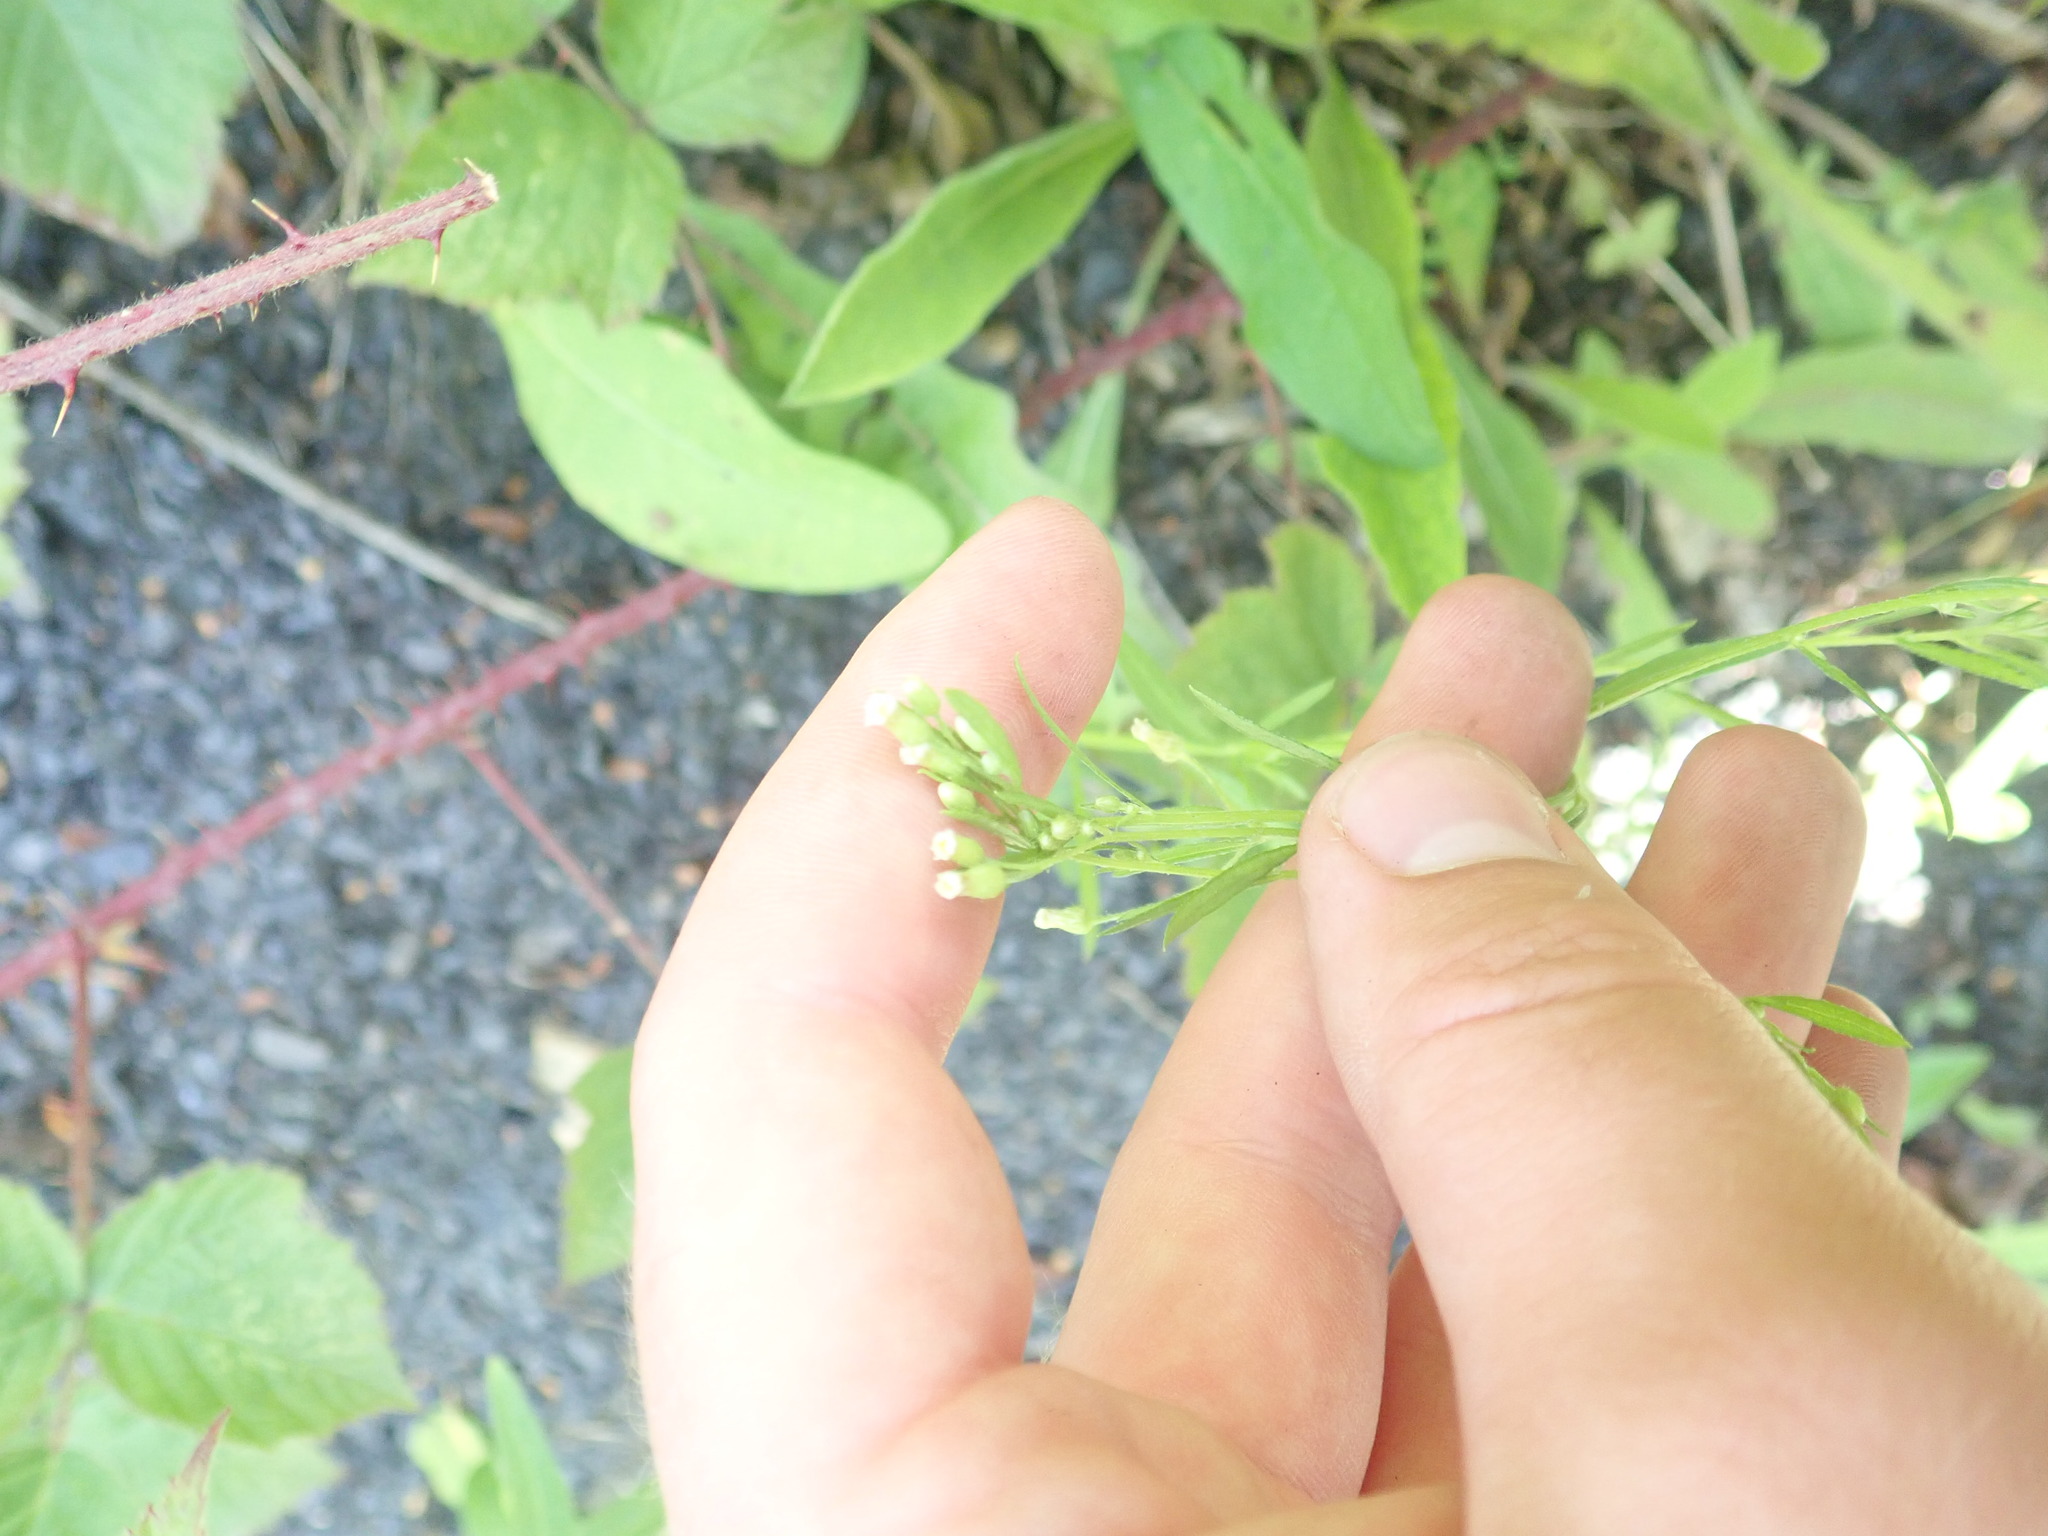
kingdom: Plantae
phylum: Tracheophyta
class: Magnoliopsida
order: Asterales
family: Asteraceae
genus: Erigeron
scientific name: Erigeron canadensis
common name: Canadian fleabane
